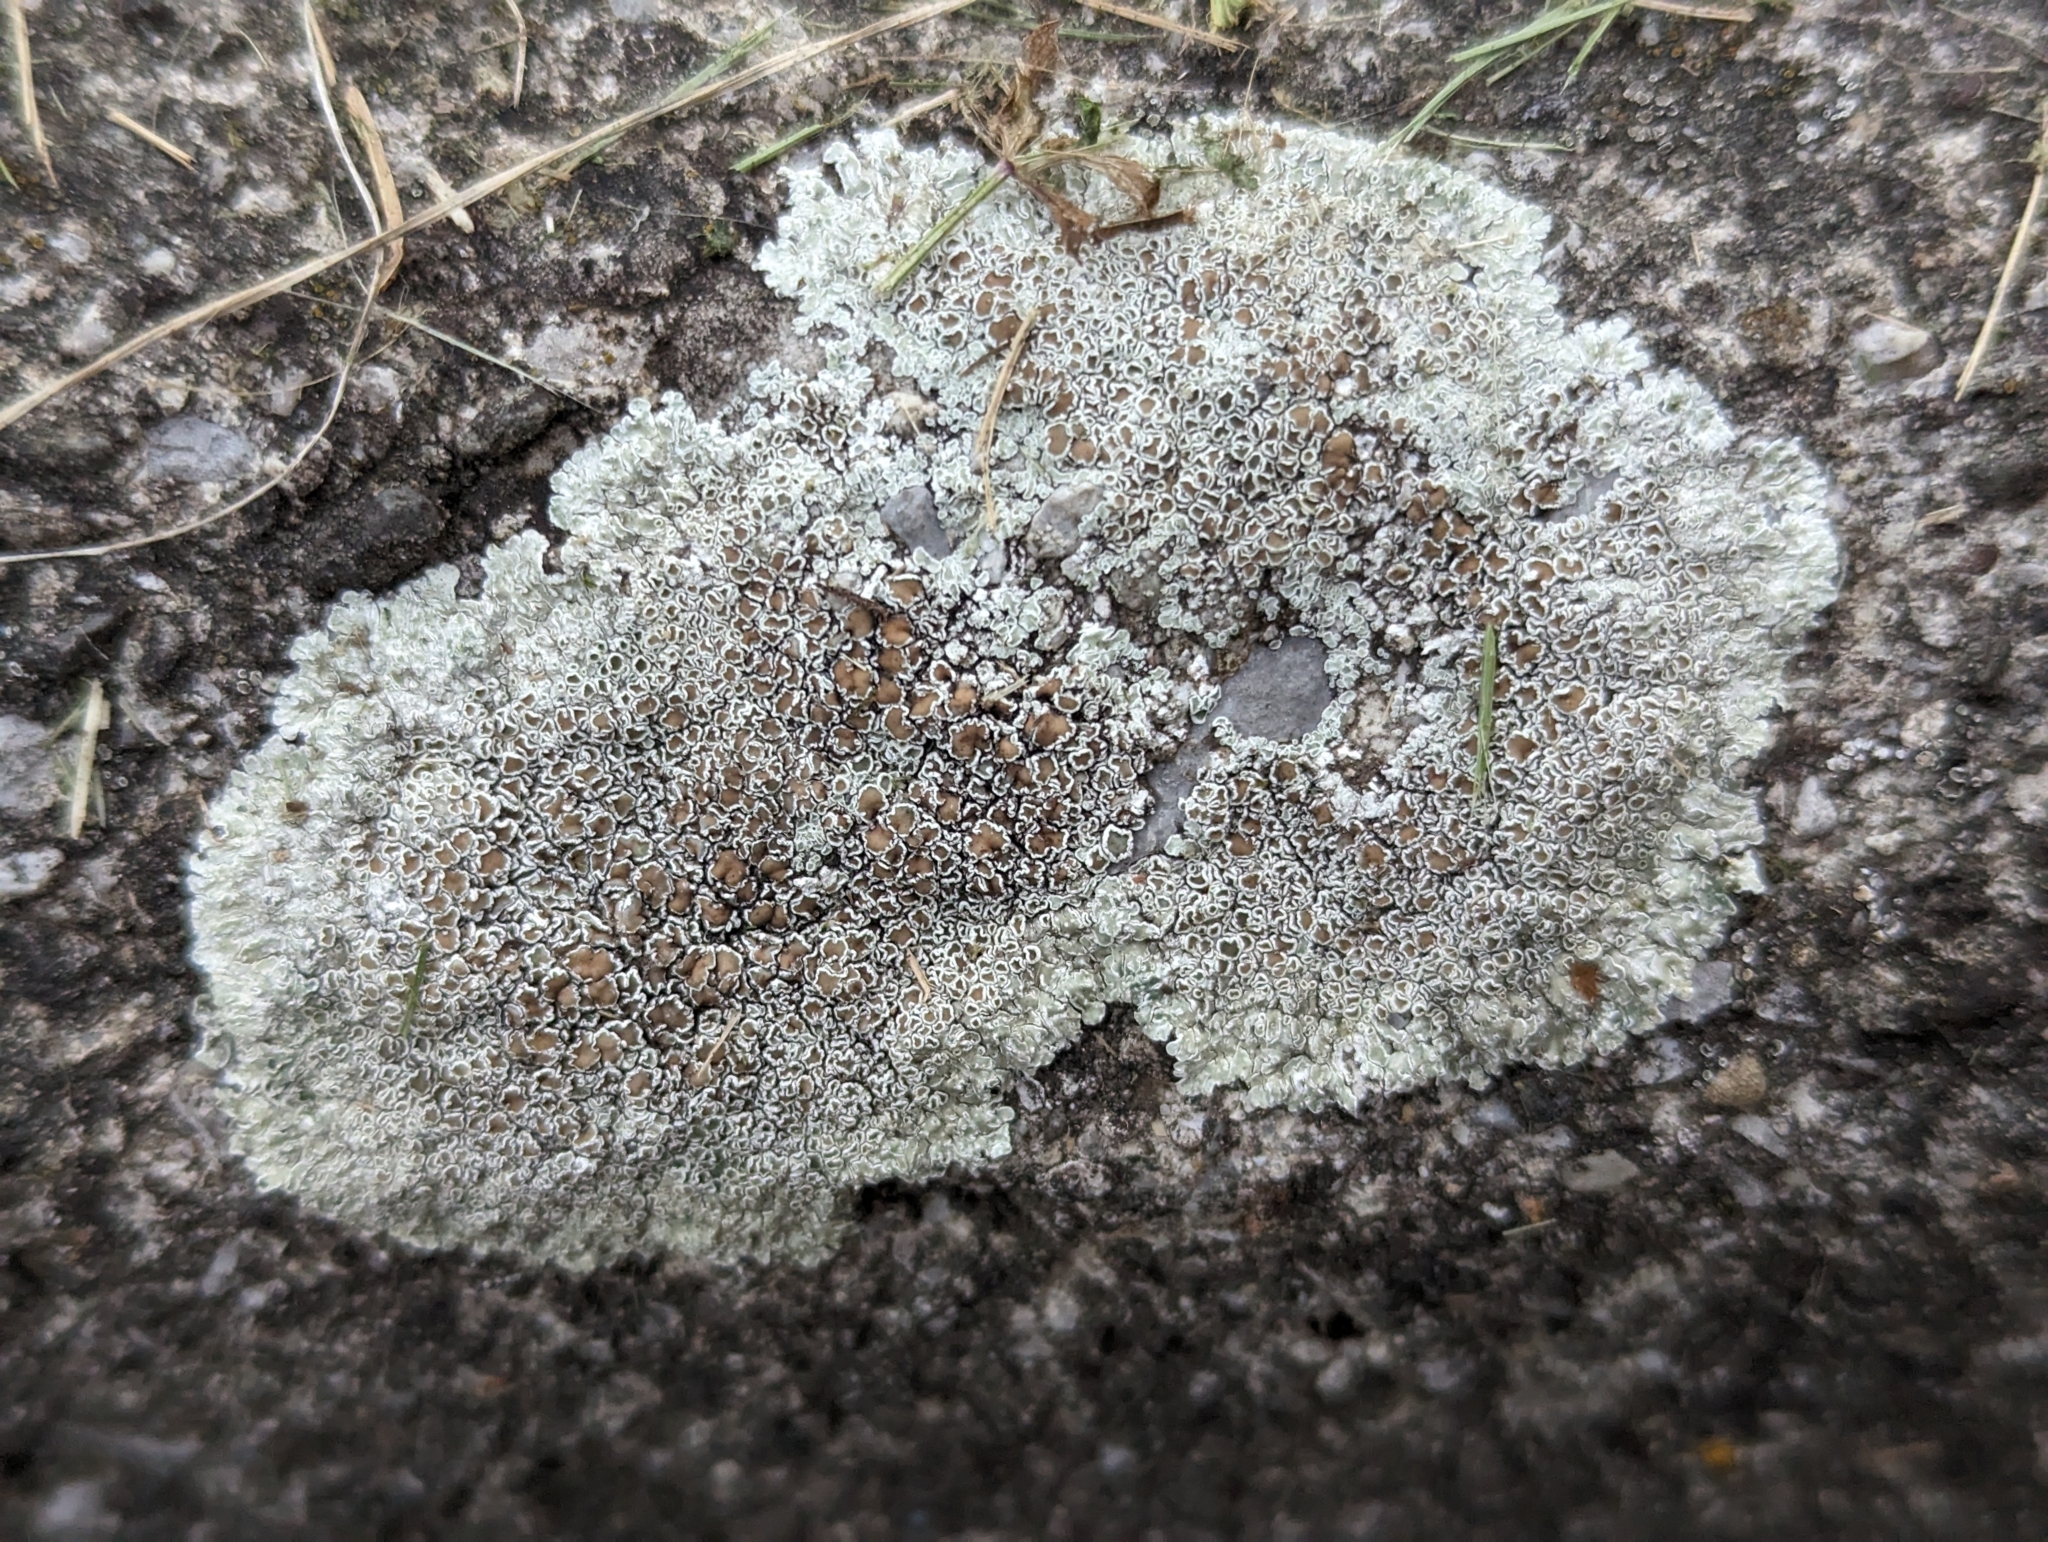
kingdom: Fungi
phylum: Ascomycota
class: Lecanoromycetes
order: Lecanorales
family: Lecanoraceae
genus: Protoparmeliopsis
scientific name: Protoparmeliopsis muralis
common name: Stonewall rim lichen
